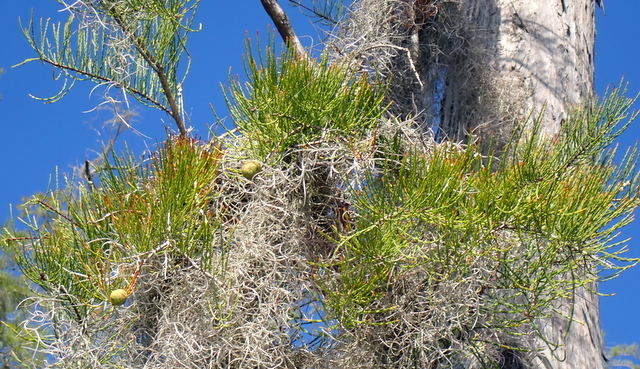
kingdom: Plantae
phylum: Tracheophyta
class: Pinopsida
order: Pinales
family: Cupressaceae
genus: Taxodium
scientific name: Taxodium distichum
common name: Bald cypress
